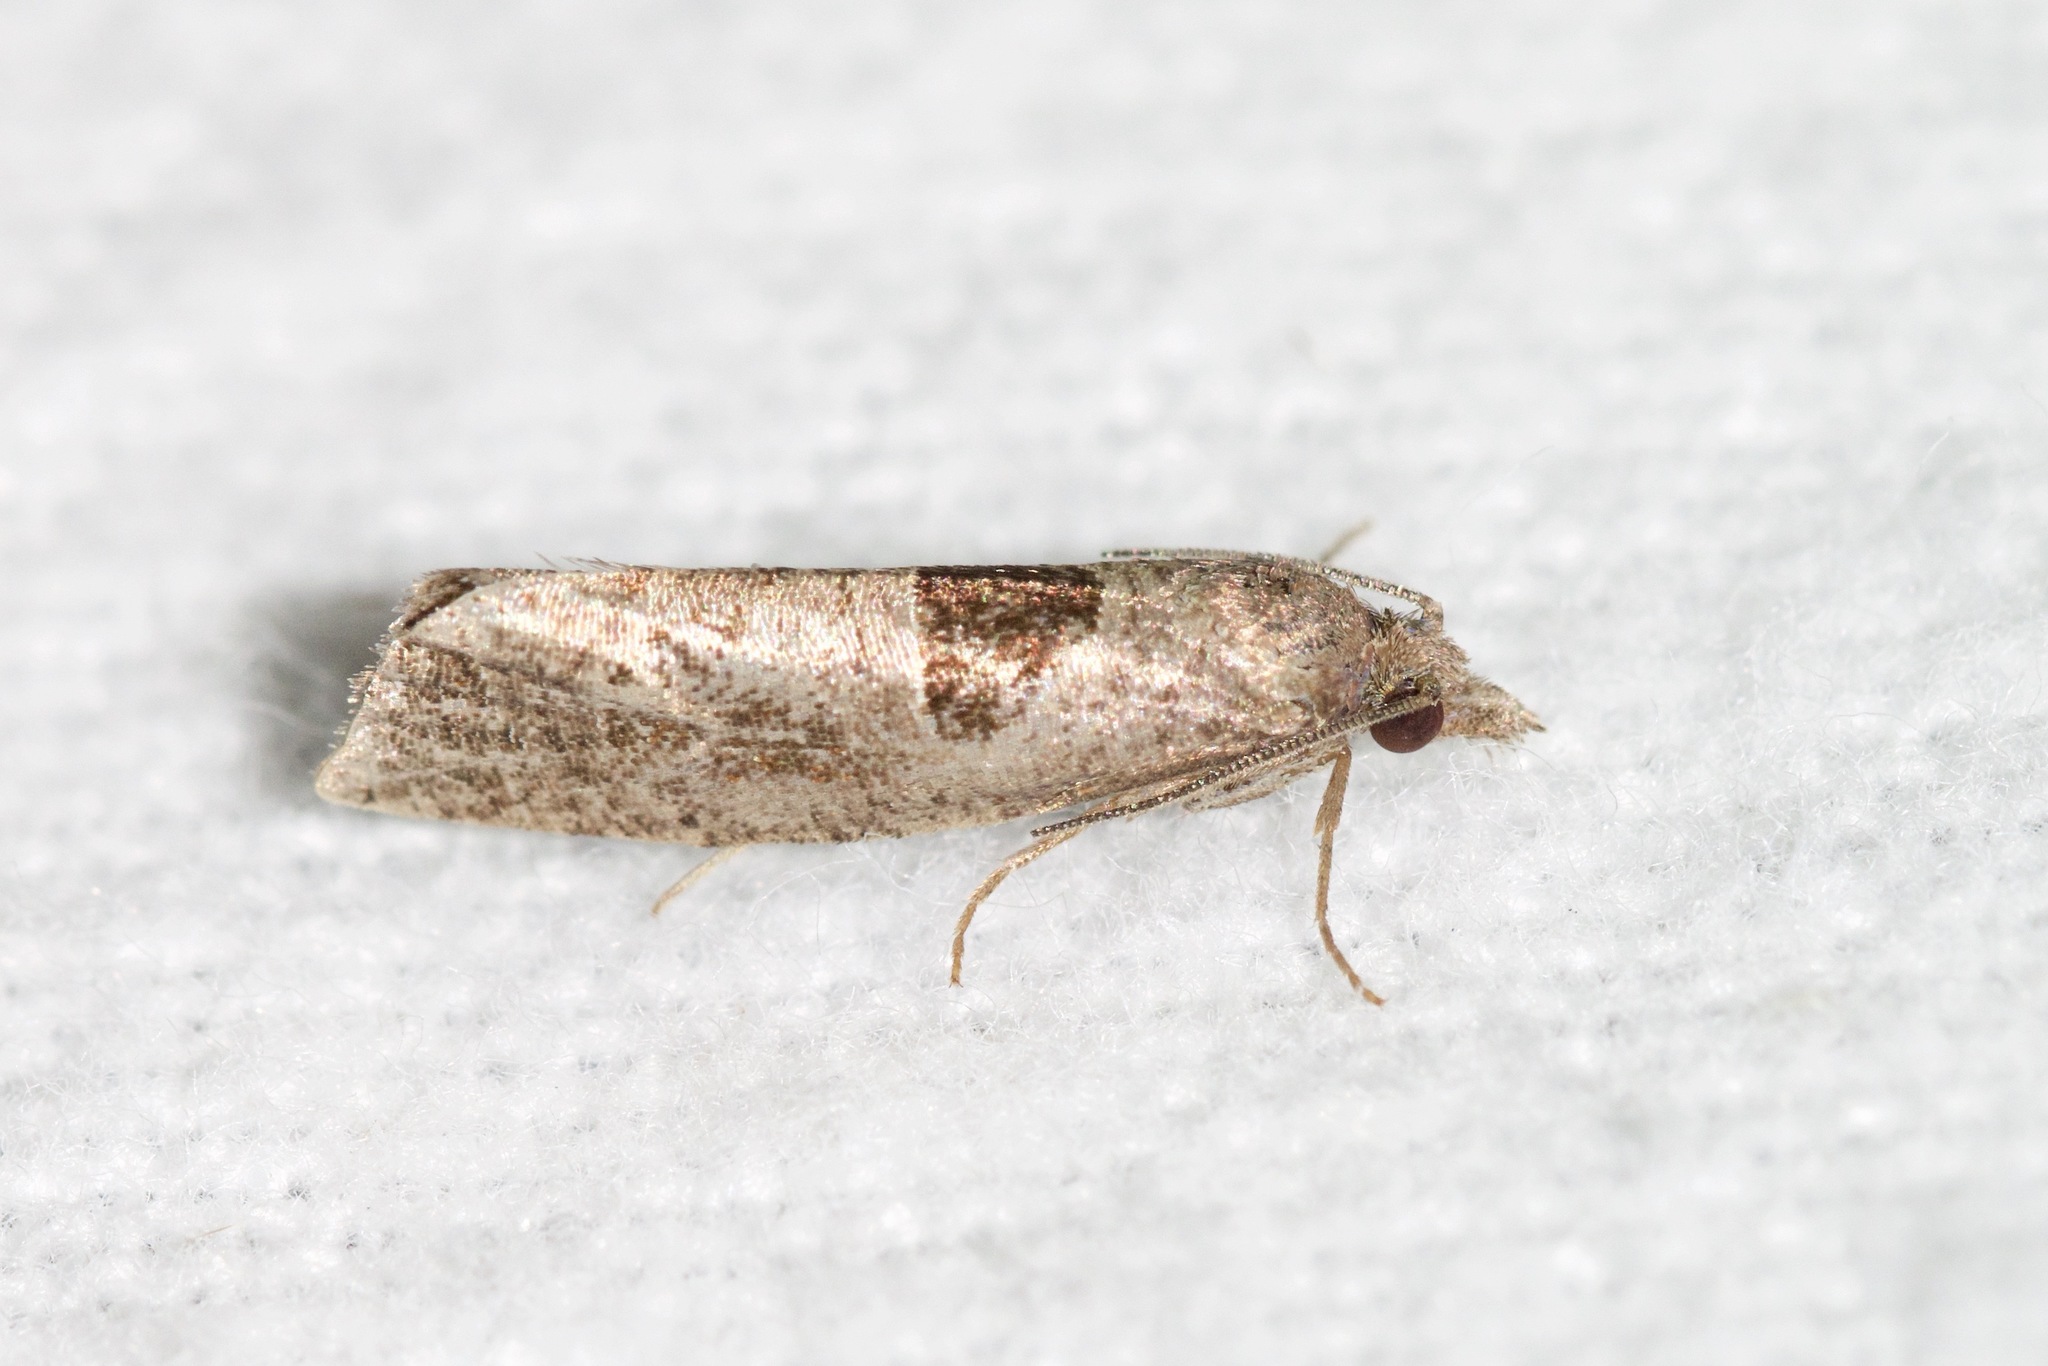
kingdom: Animalia
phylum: Arthropoda
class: Insecta
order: Lepidoptera
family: Tortricidae
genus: Pelochrista
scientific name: Pelochrista dorsisignatana
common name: Triangle-backed pelochrista moth
